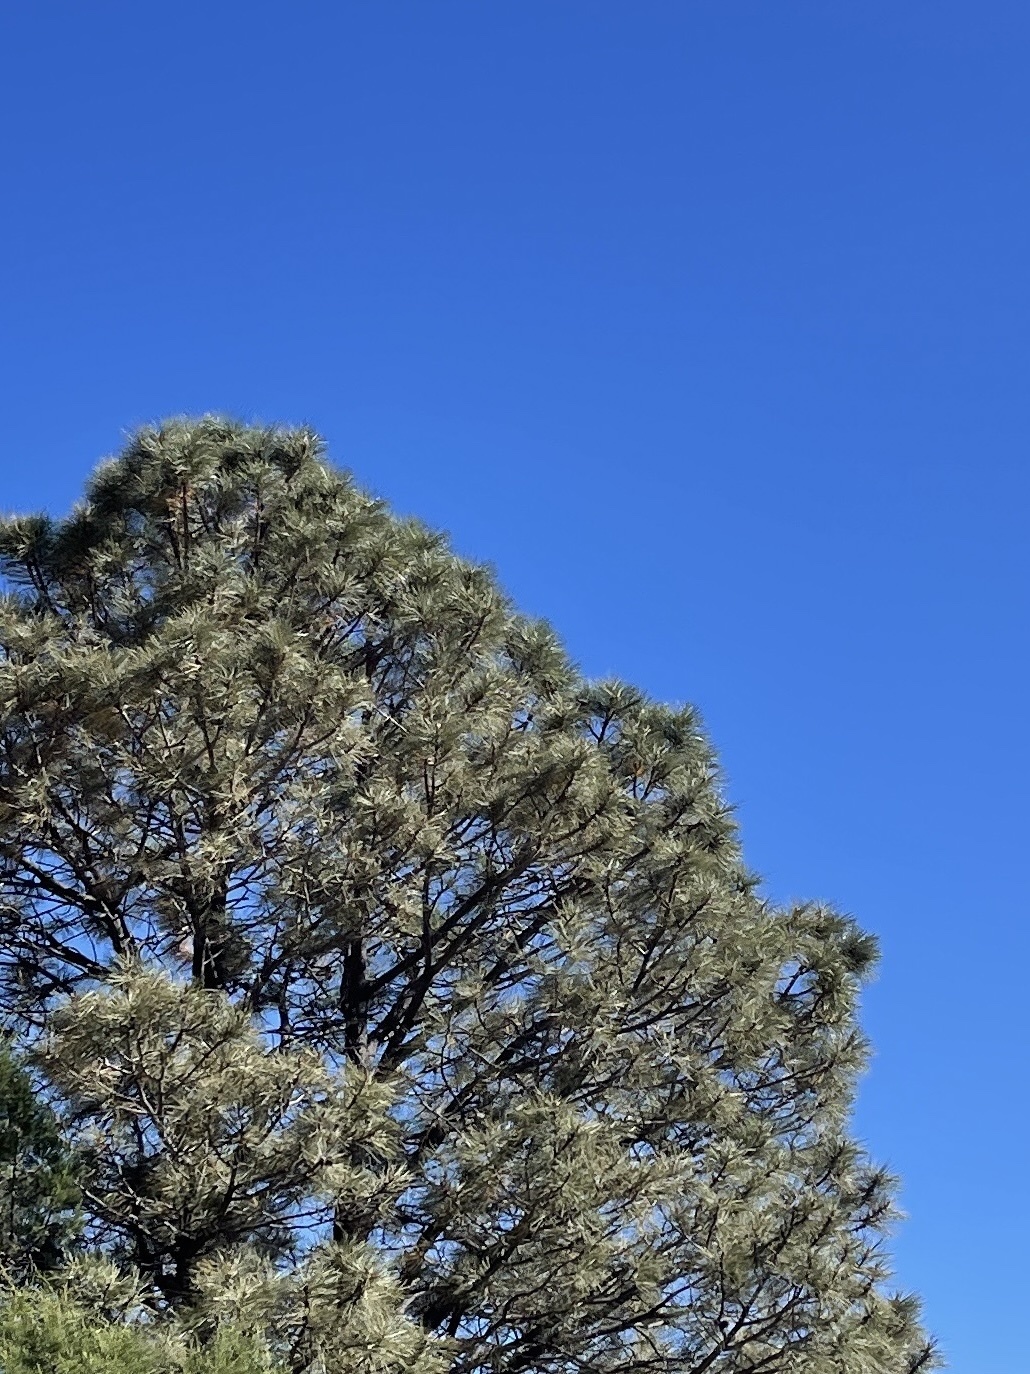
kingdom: Plantae
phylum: Tracheophyta
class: Pinopsida
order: Pinales
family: Pinaceae
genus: Pinus
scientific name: Pinus ponderosa
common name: Western yellow-pine
